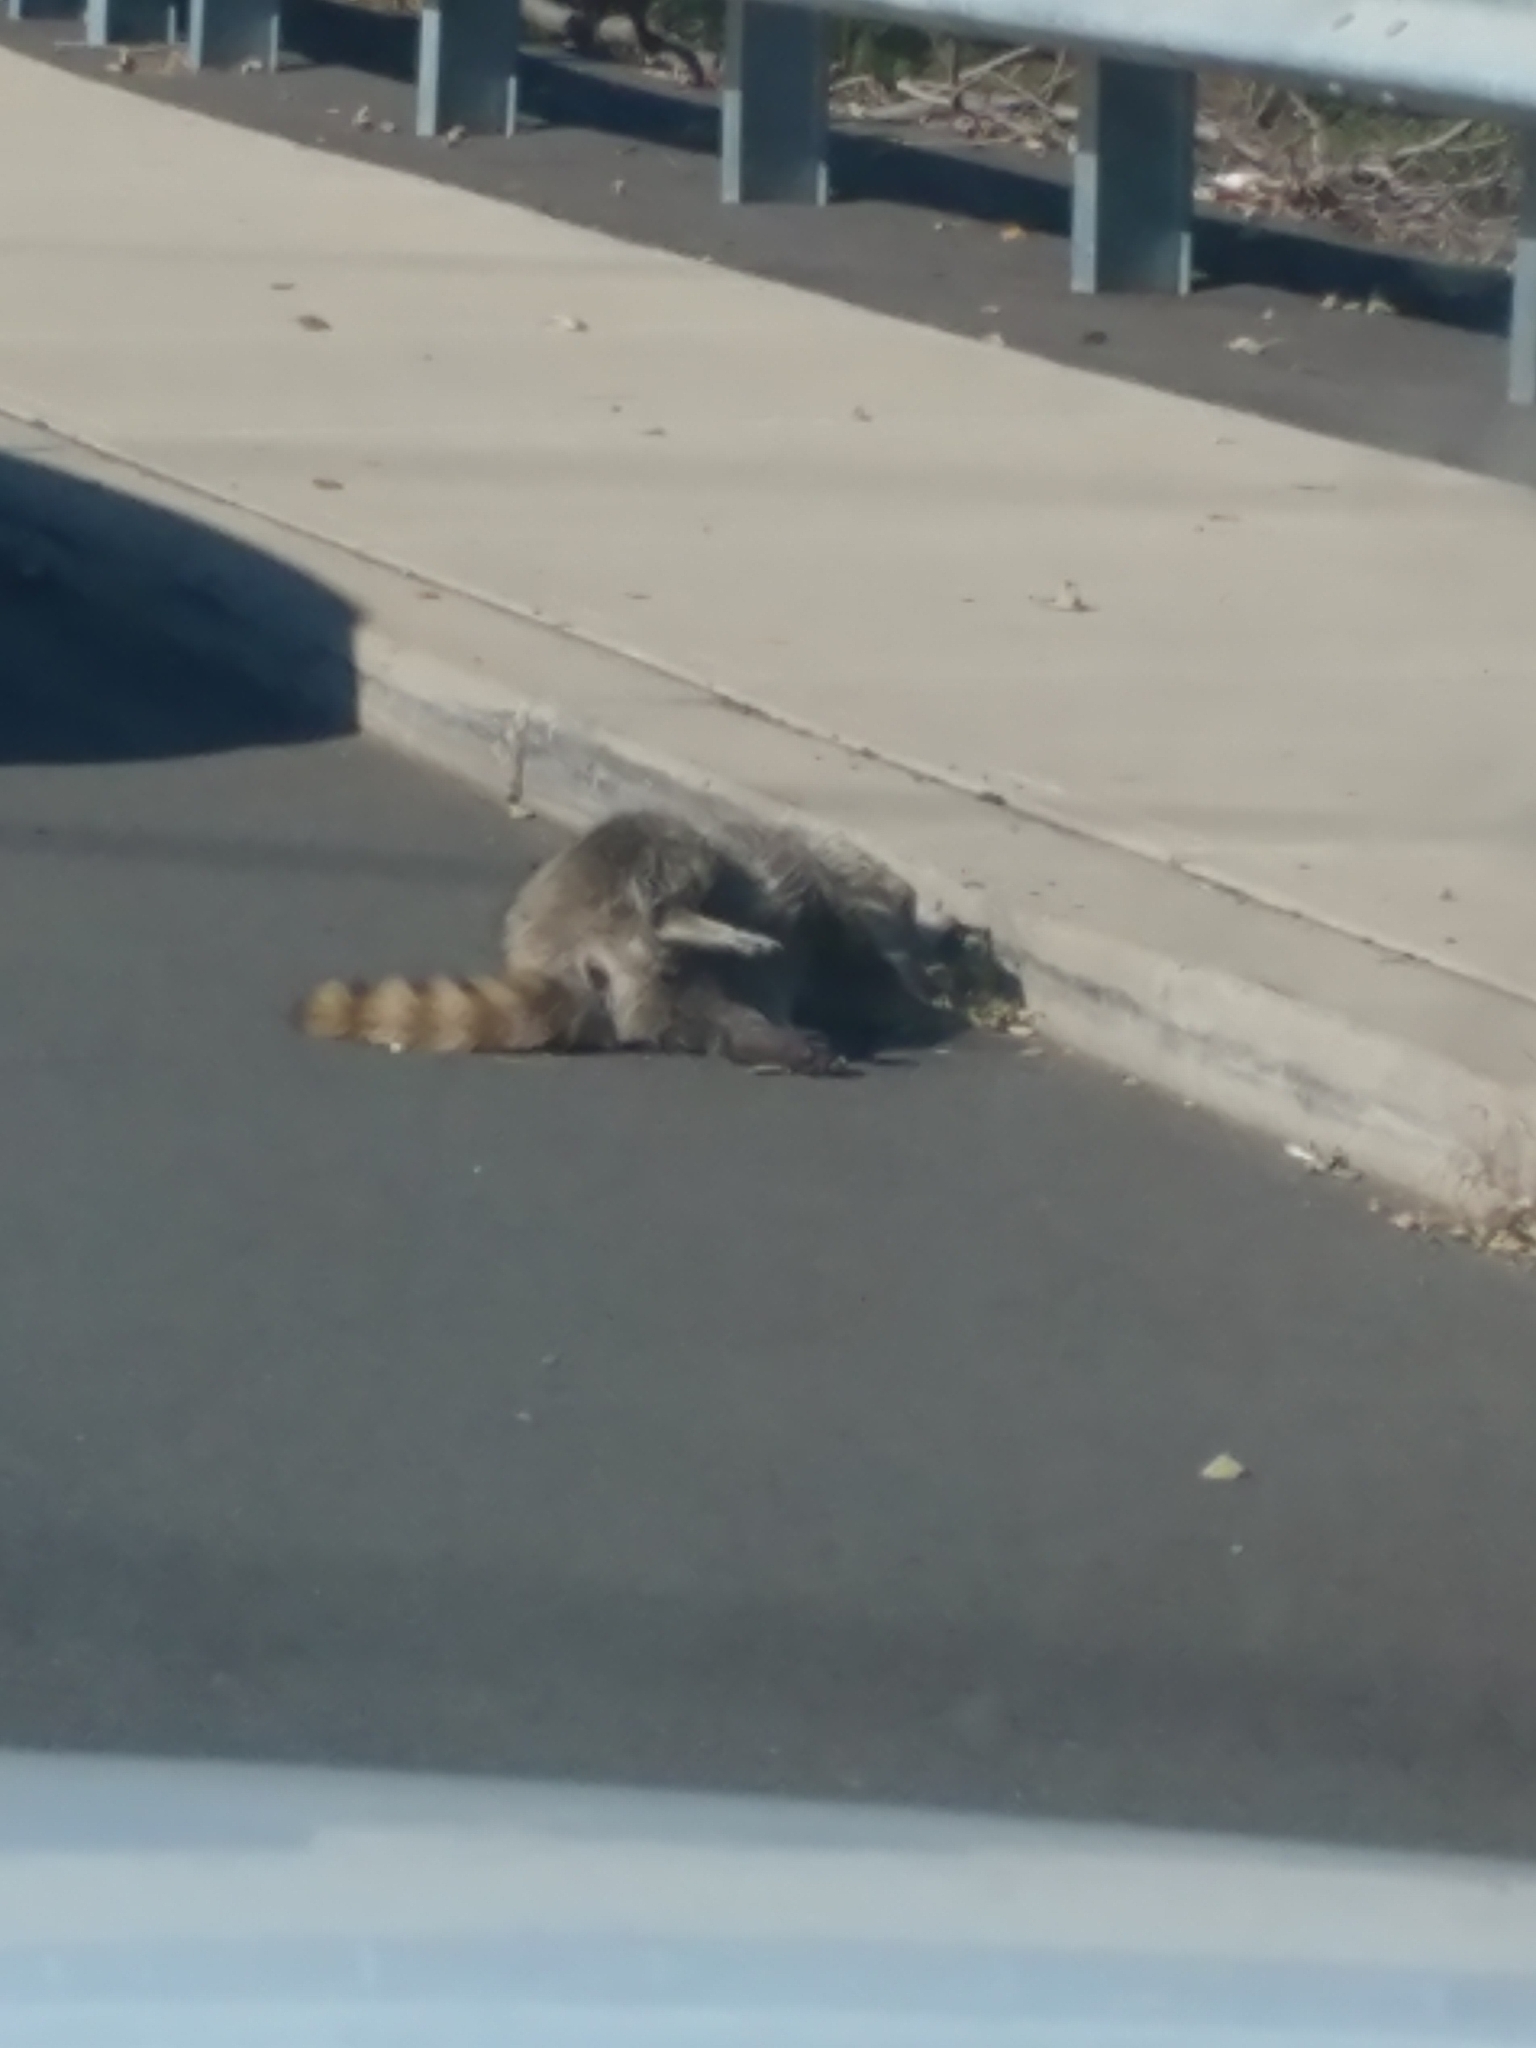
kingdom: Animalia
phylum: Chordata
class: Mammalia
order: Carnivora
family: Procyonidae
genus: Procyon
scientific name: Procyon lotor
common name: Raccoon
